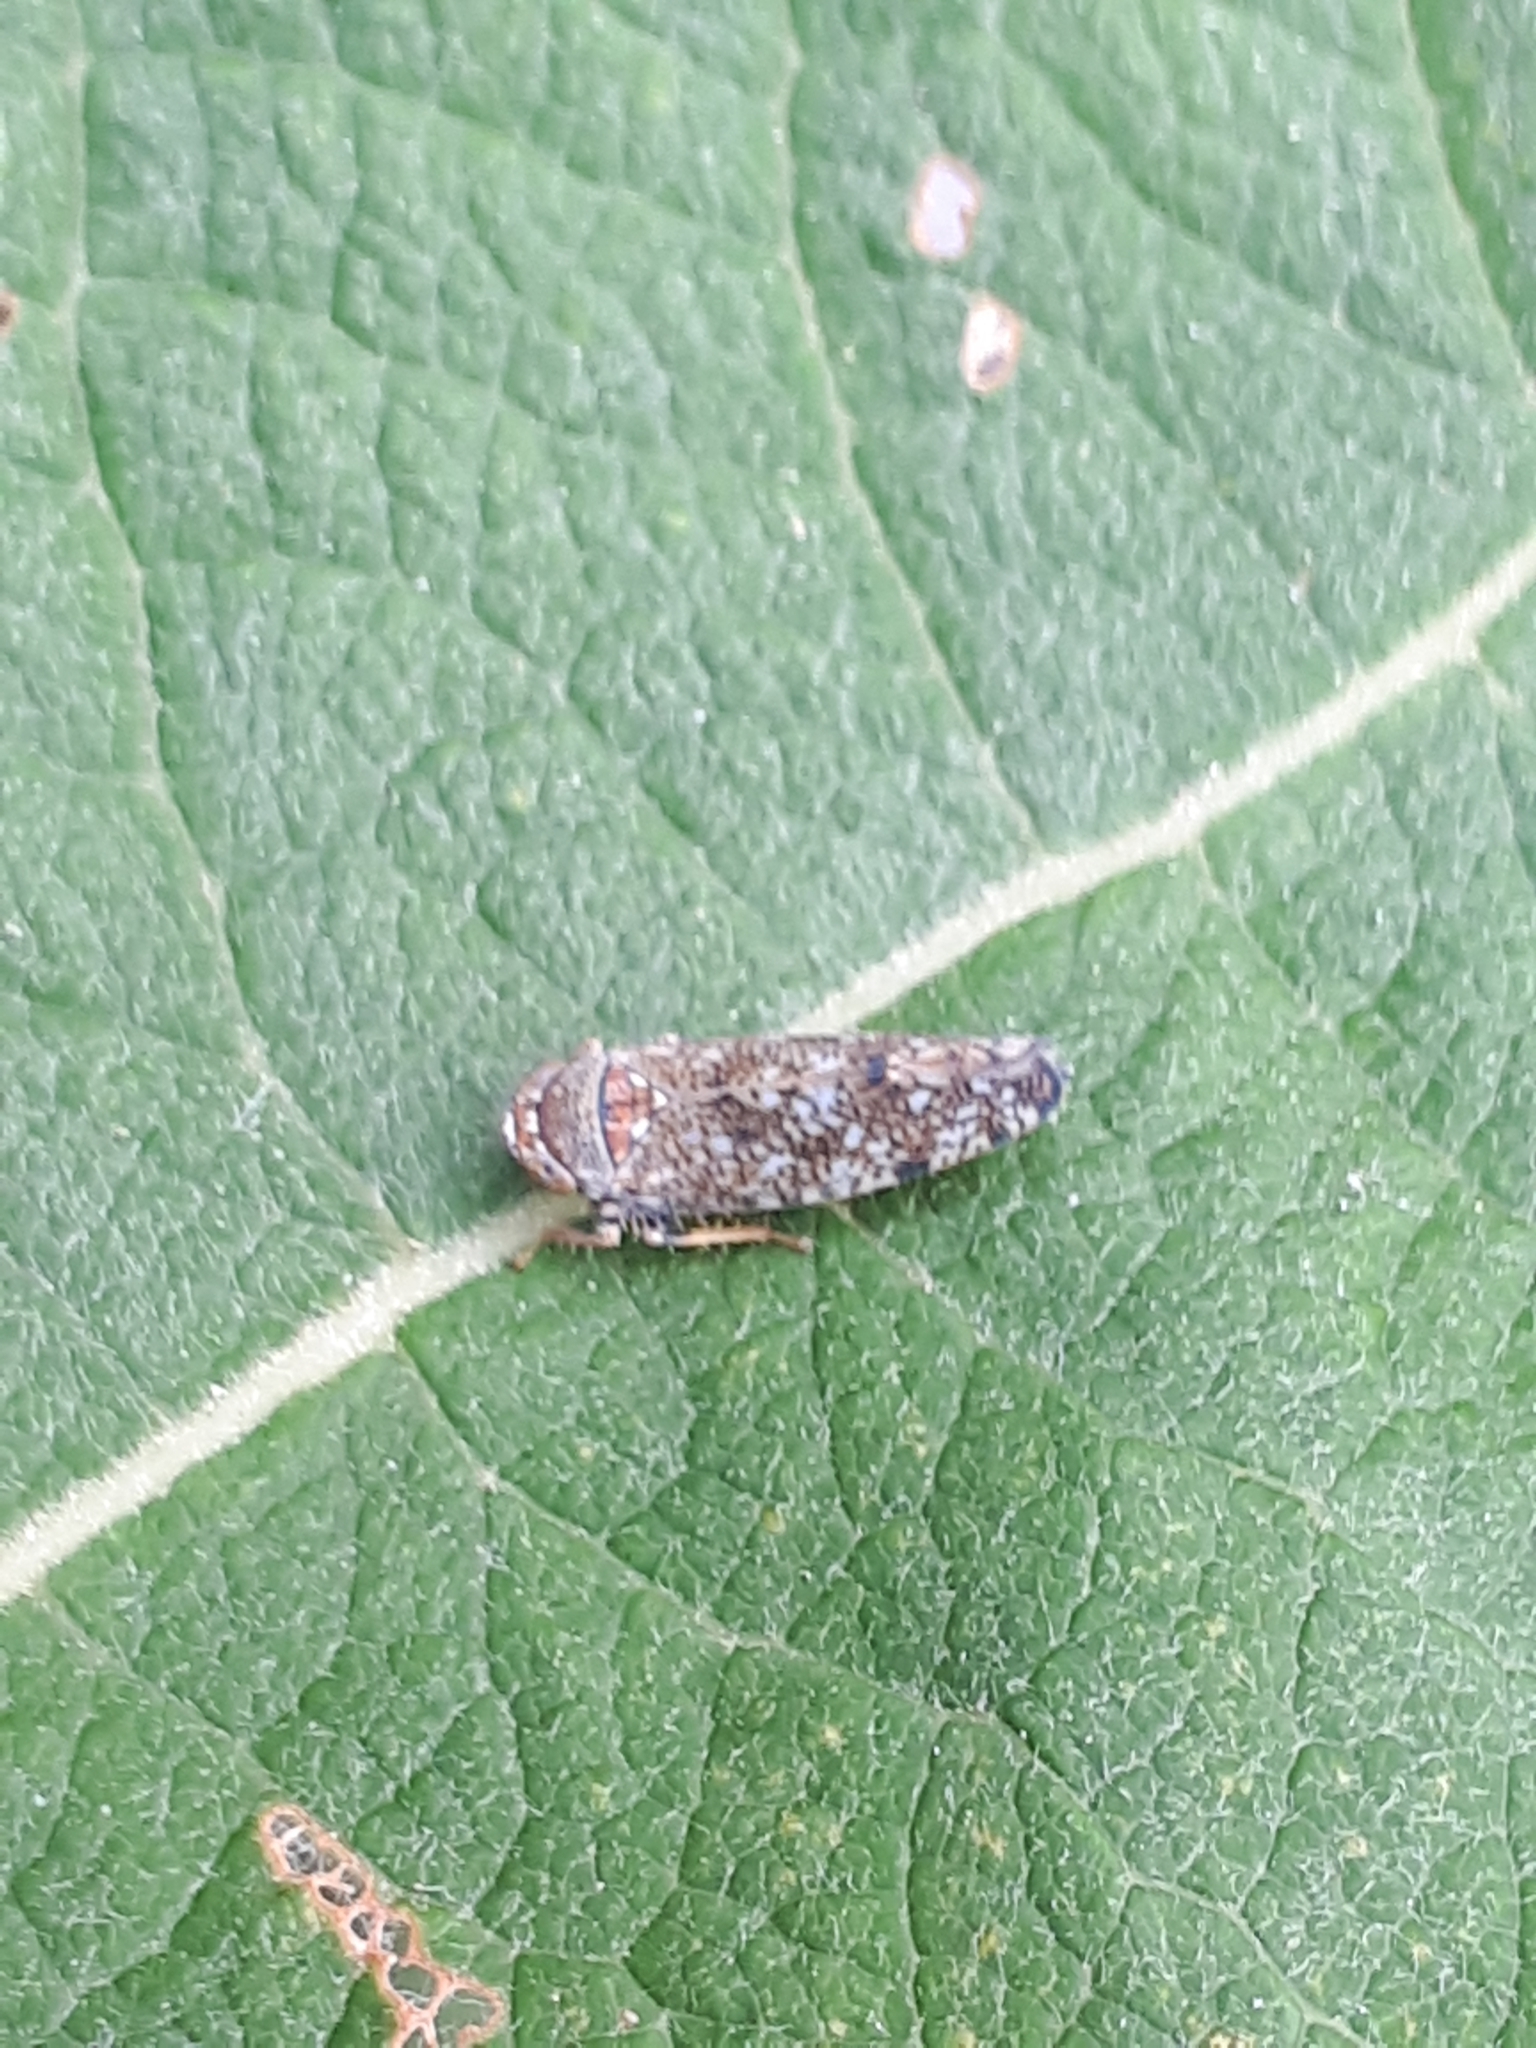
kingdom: Animalia
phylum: Arthropoda
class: Insecta
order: Hemiptera
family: Cicadellidae
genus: Orientus
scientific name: Orientus ishidae
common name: Japanese leafhopper
